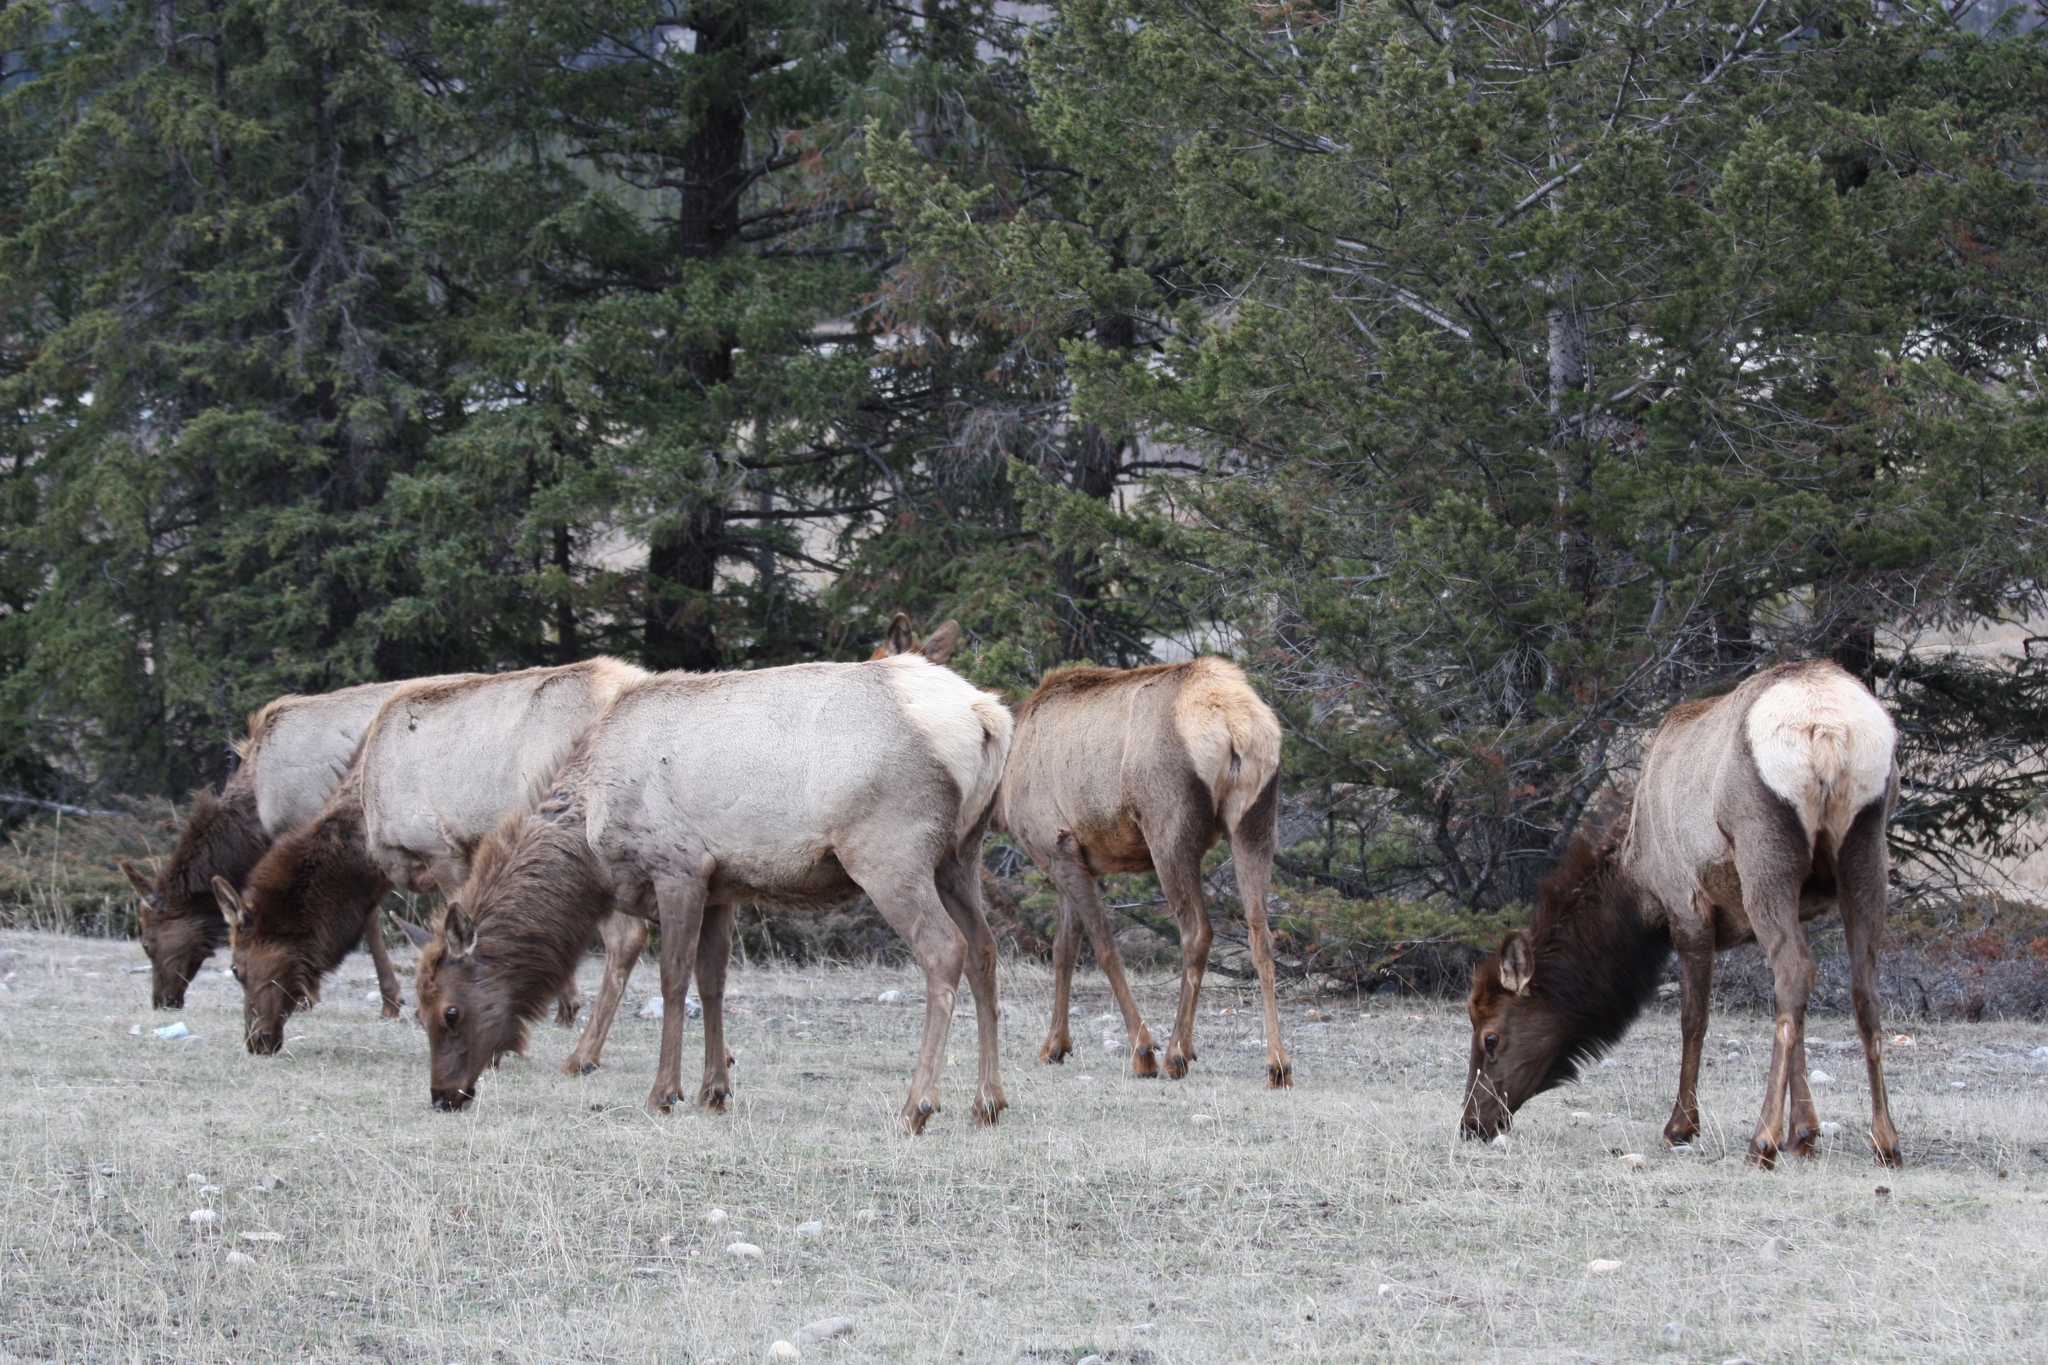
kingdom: Animalia
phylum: Chordata
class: Mammalia
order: Artiodactyla
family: Cervidae
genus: Cervus
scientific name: Cervus elaphus
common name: Red deer
